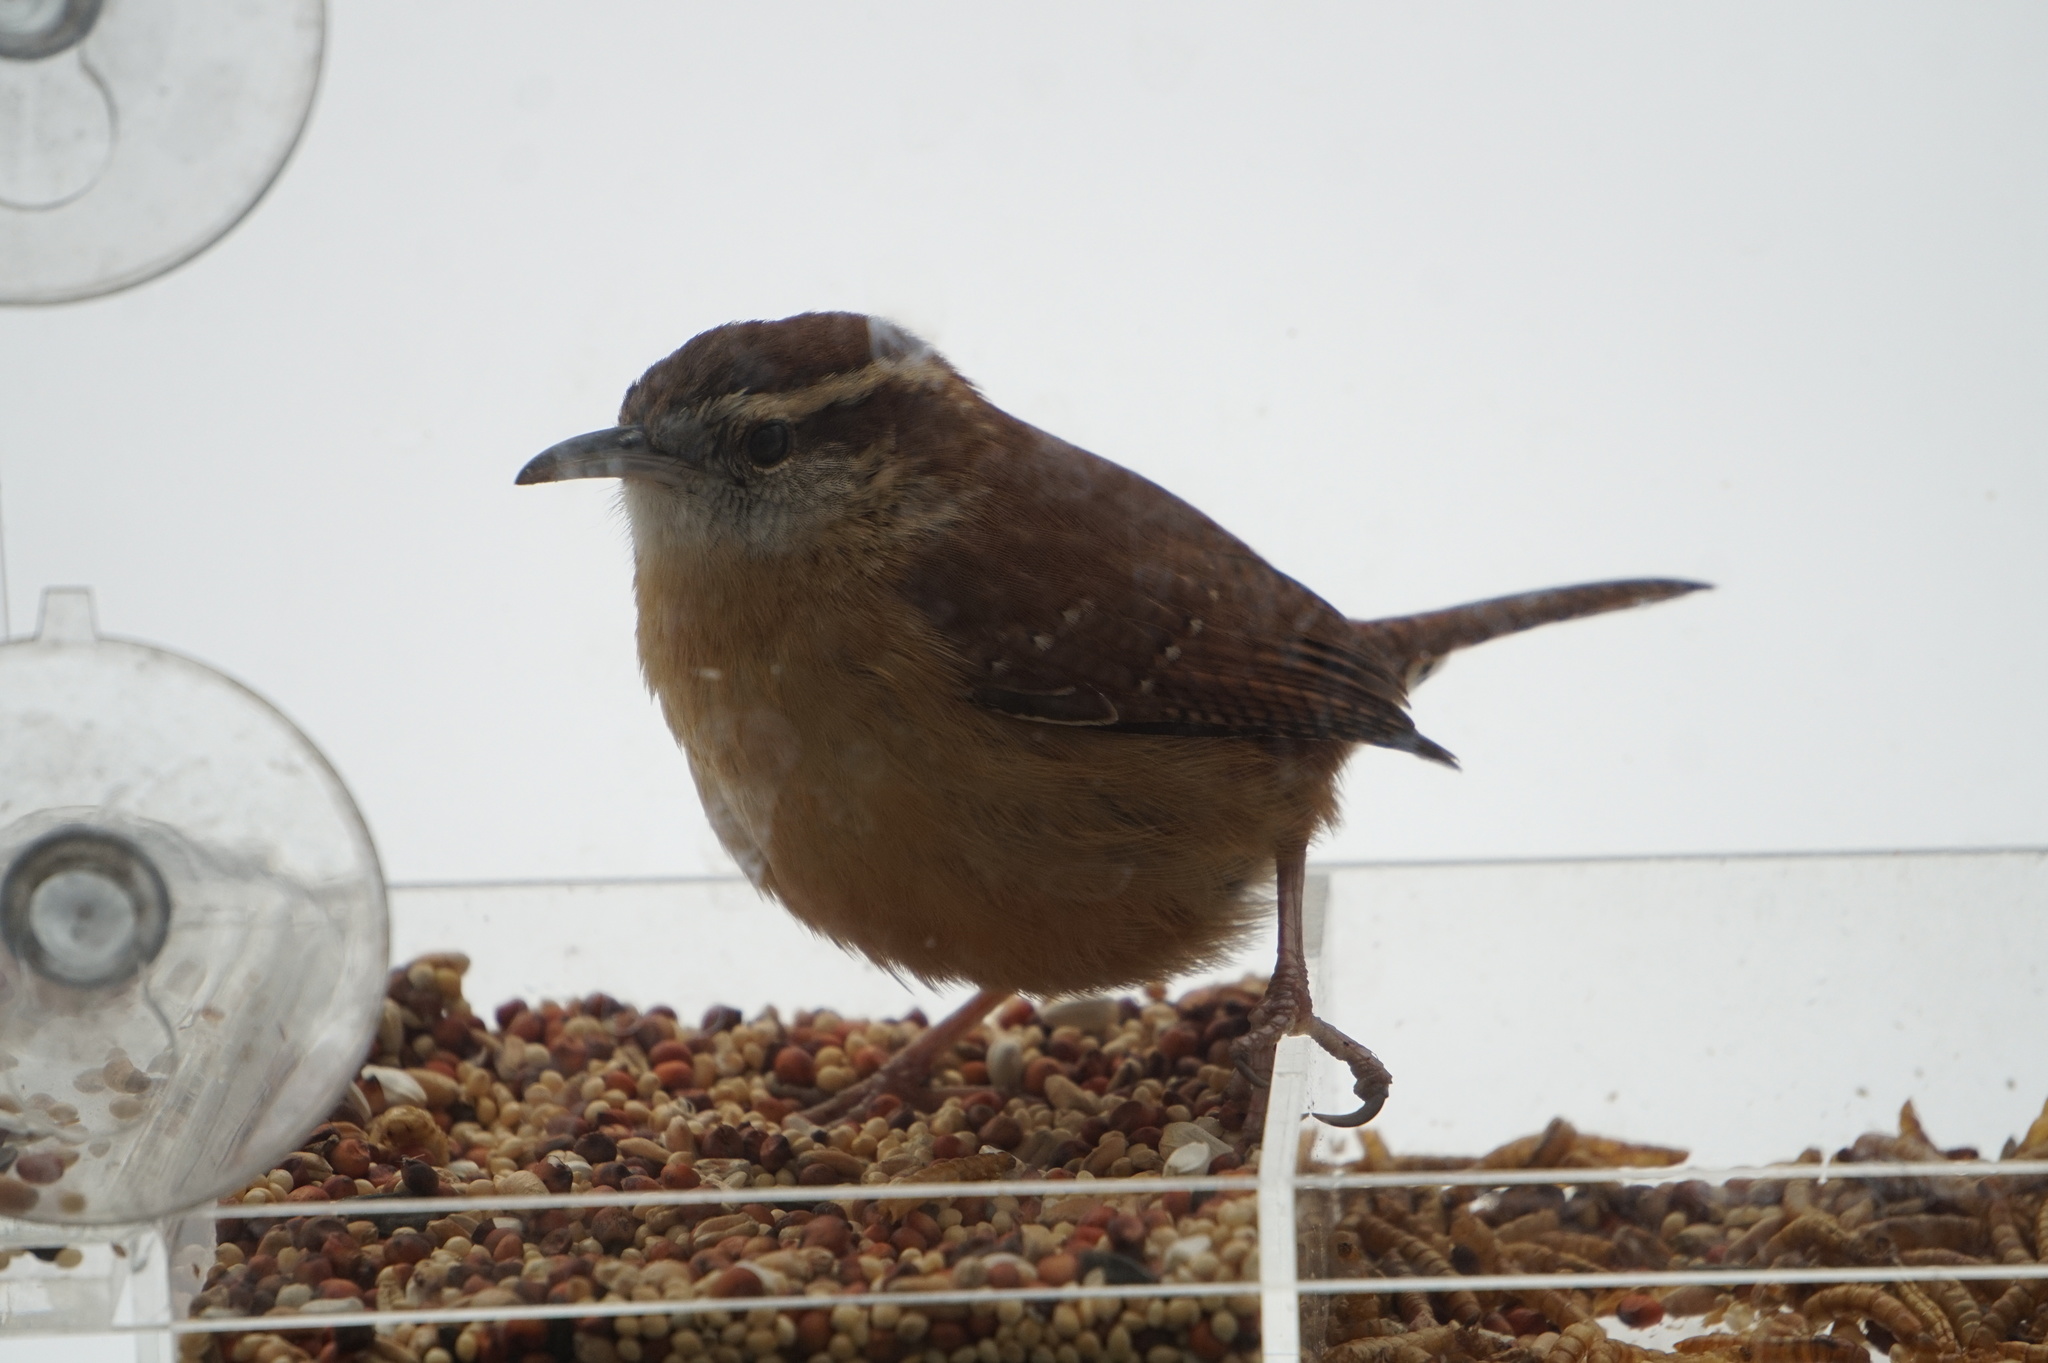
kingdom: Animalia
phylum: Chordata
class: Aves
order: Passeriformes
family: Troglodytidae
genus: Thryothorus
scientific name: Thryothorus ludovicianus
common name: Carolina wren
